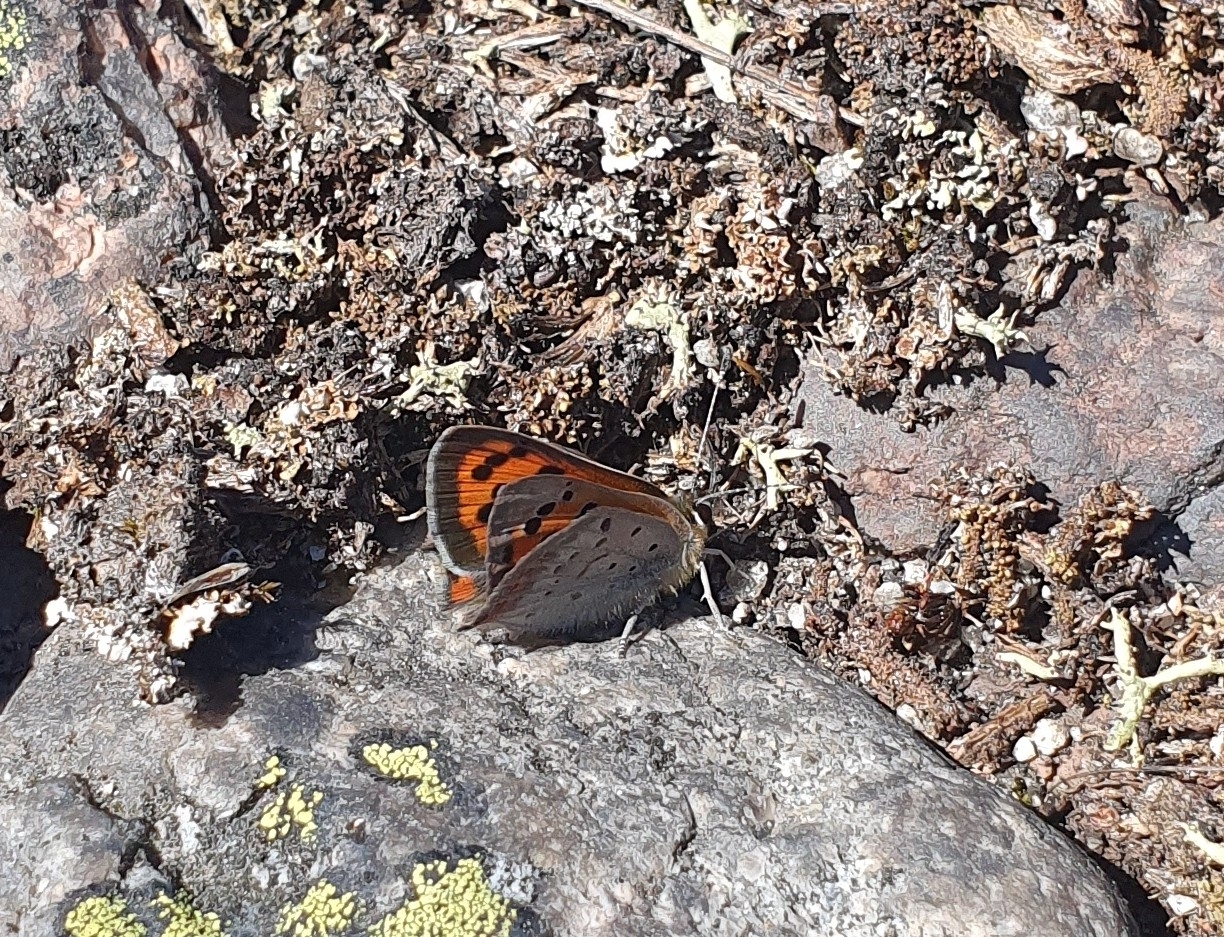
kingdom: Animalia
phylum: Arthropoda
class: Insecta
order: Lepidoptera
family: Lycaenidae
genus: Lycaena
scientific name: Lycaena phlaeas
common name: Small copper
